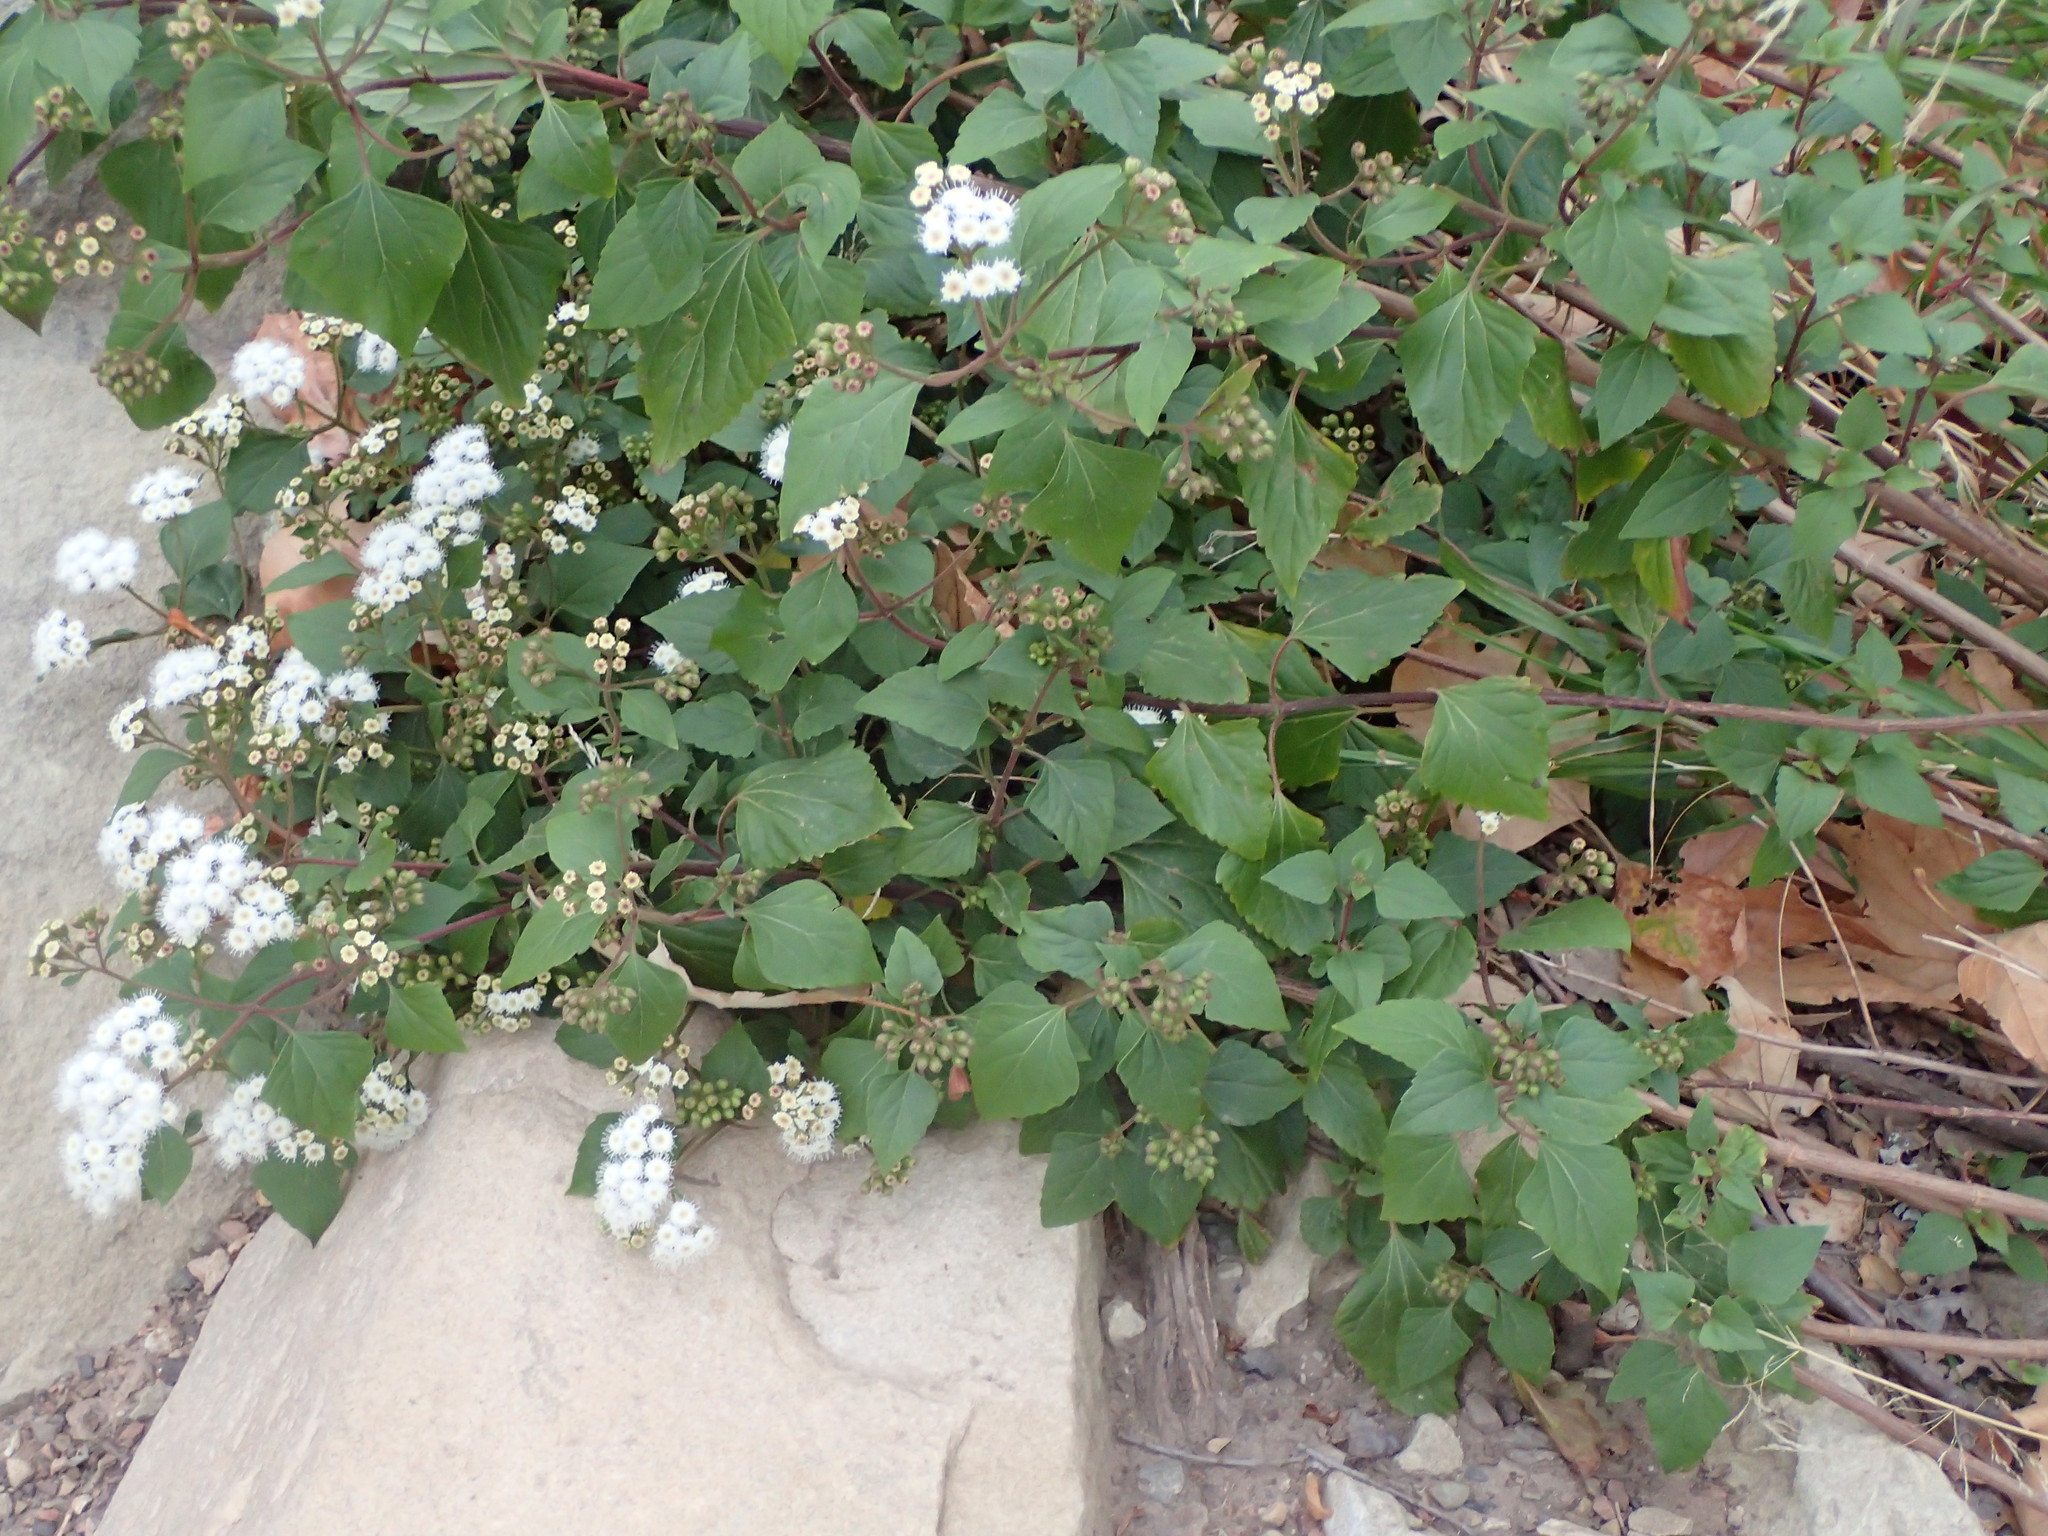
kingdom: Plantae
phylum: Tracheophyta
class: Magnoliopsida
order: Asterales
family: Asteraceae
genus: Ageratina
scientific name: Ageratina adenophora
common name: Sticky snakeroot
